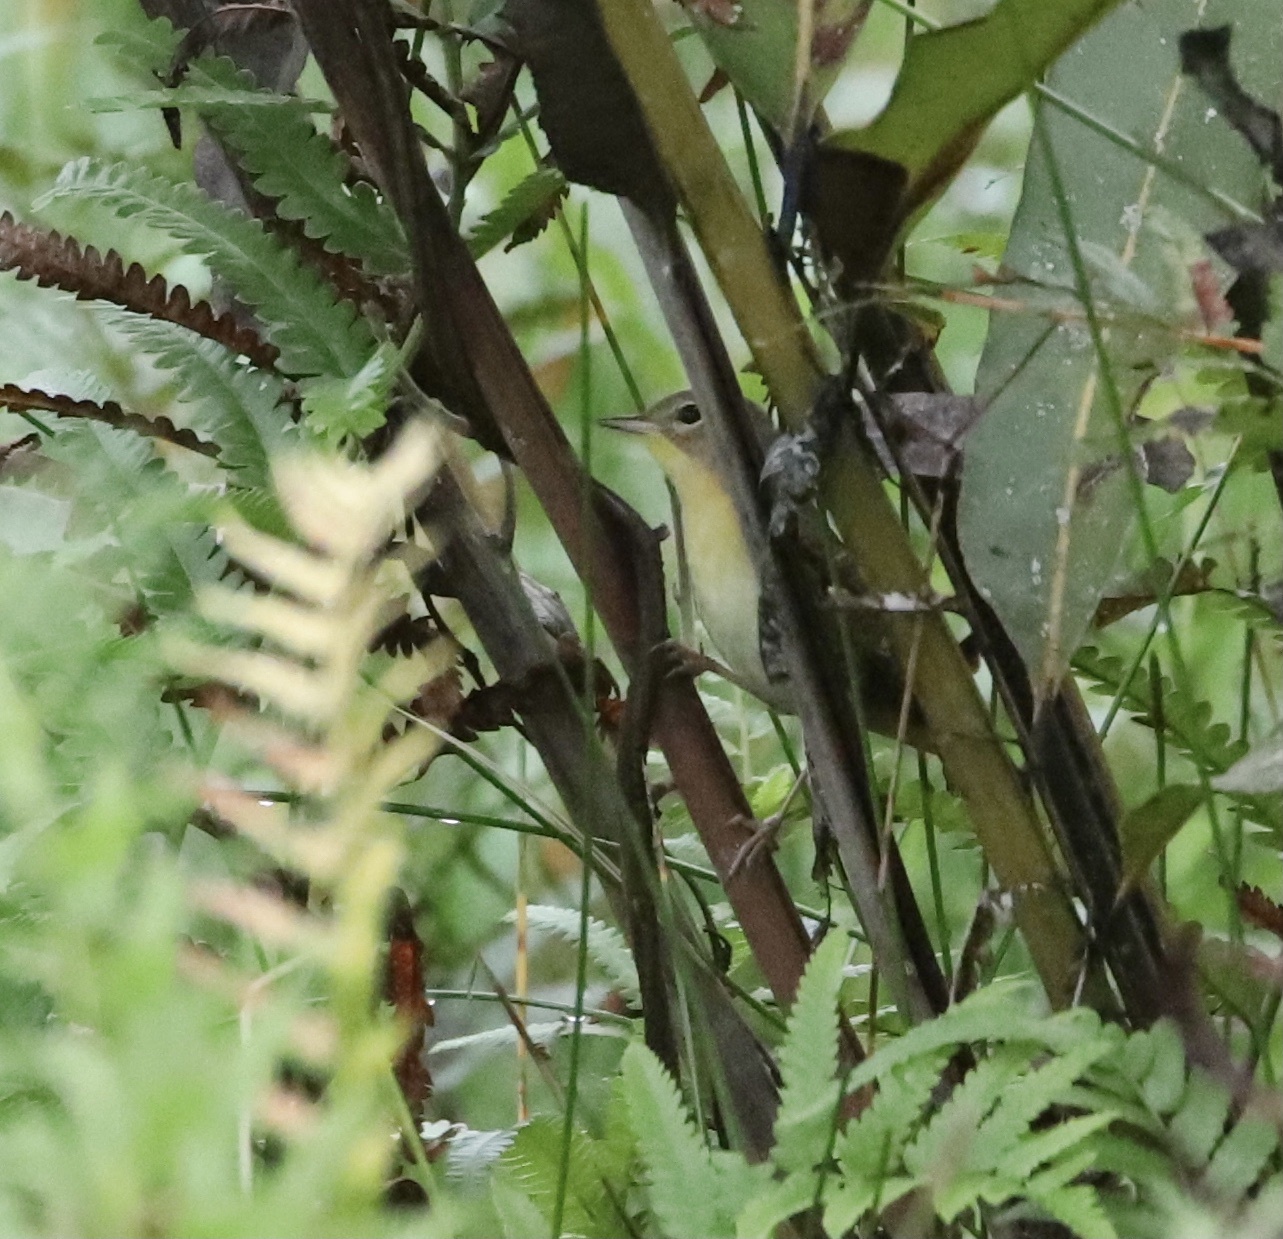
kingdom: Animalia
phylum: Chordata
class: Aves
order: Passeriformes
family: Parulidae
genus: Geothlypis
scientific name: Geothlypis trichas
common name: Common yellowthroat
